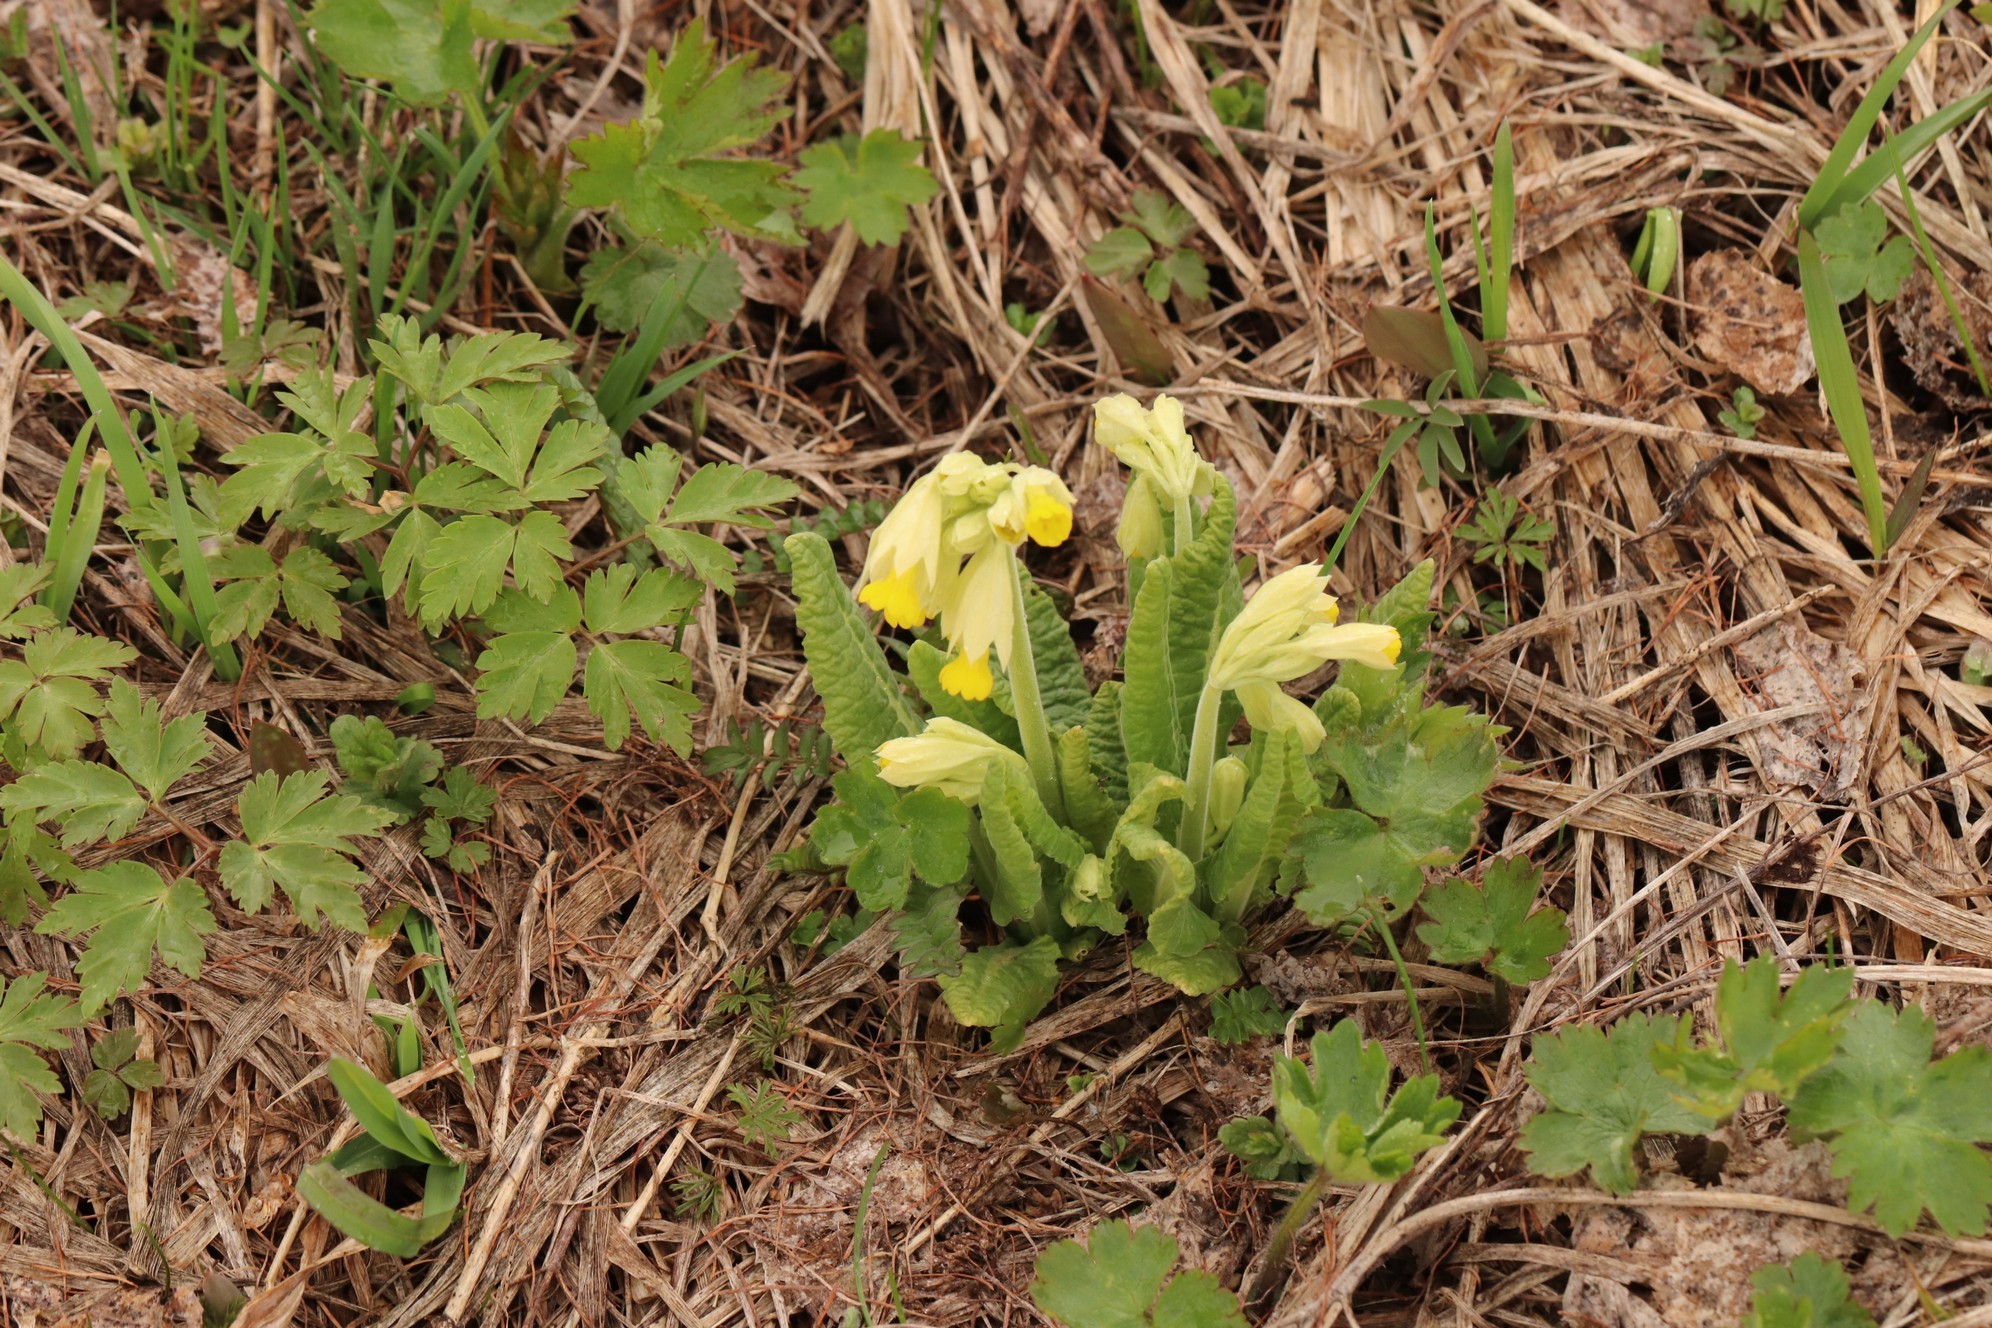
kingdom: Plantae
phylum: Tracheophyta
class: Magnoliopsida
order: Ericales
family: Primulaceae
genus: Primula
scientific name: Primula veris
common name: Cowslip
